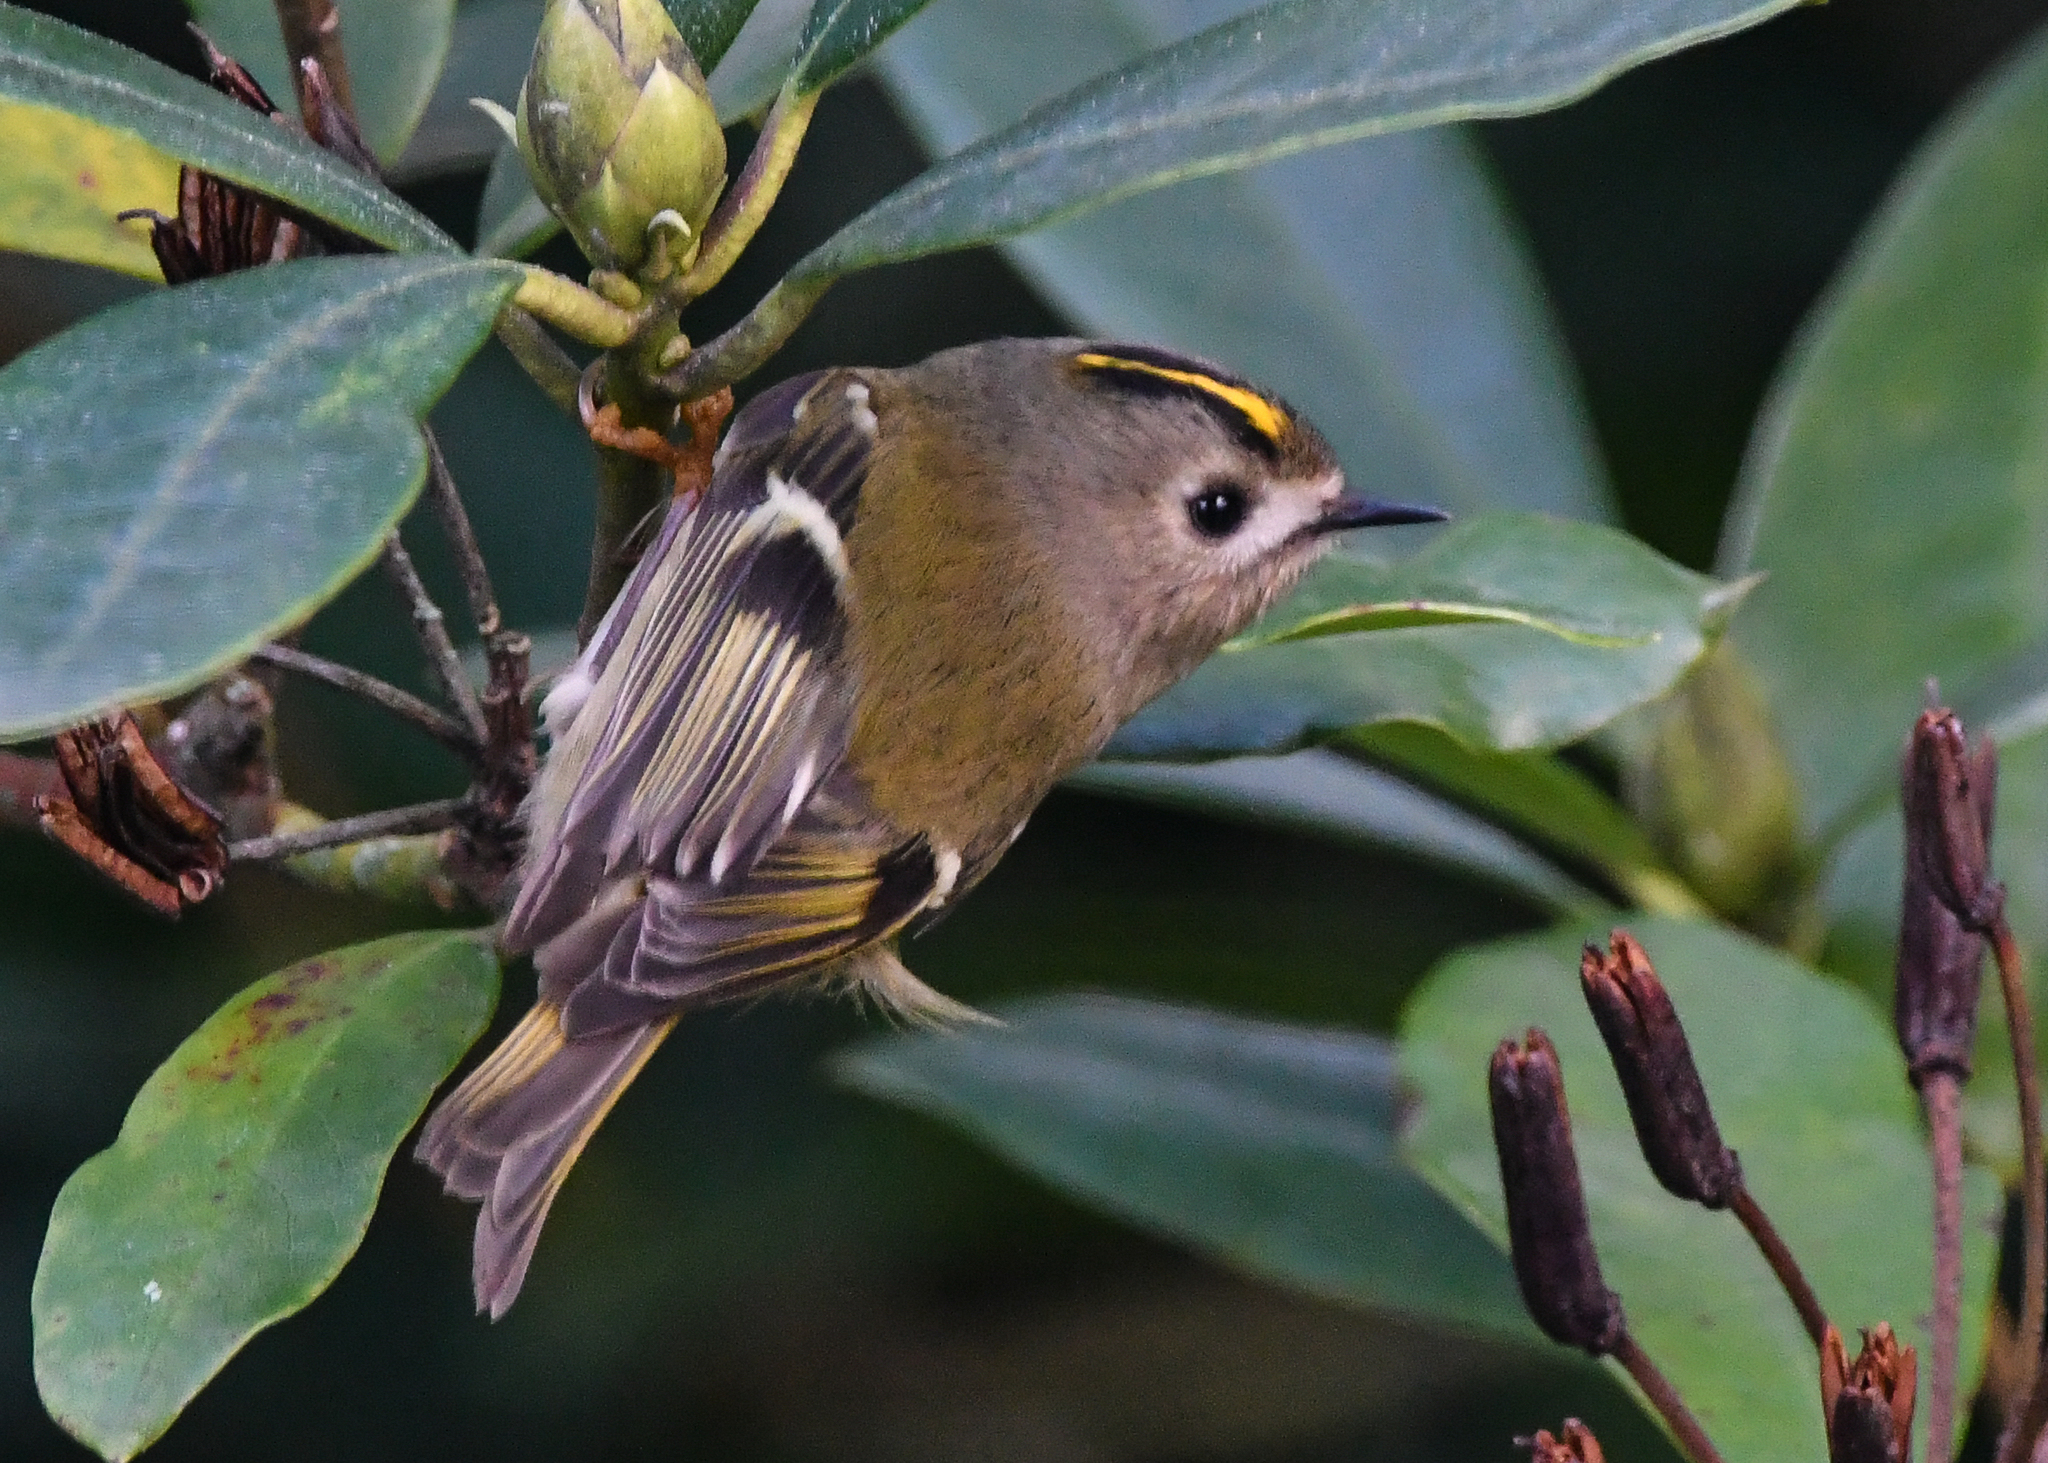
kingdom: Animalia
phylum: Chordata
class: Aves
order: Passeriformes
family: Regulidae
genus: Regulus
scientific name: Regulus regulus
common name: Goldcrest
